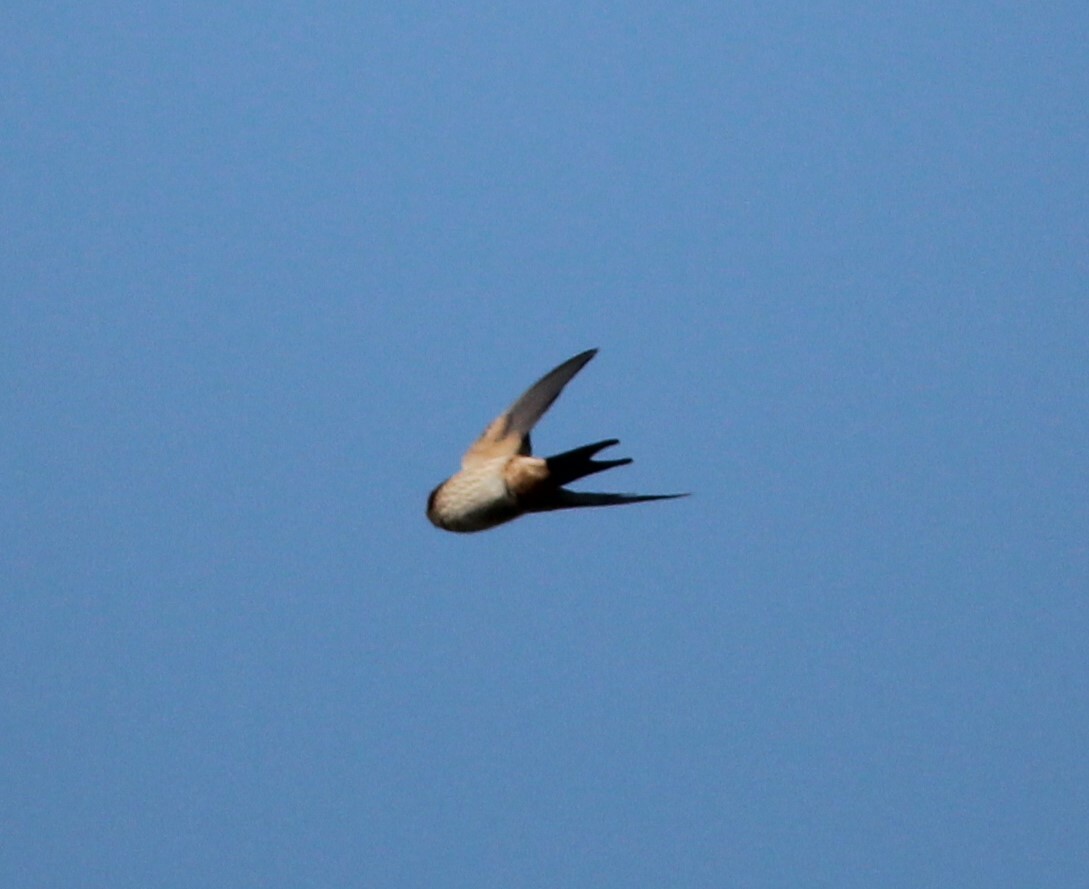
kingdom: Animalia
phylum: Chordata
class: Aves
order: Passeriformes
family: Hirundinidae
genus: Cecropis
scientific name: Cecropis daurica
